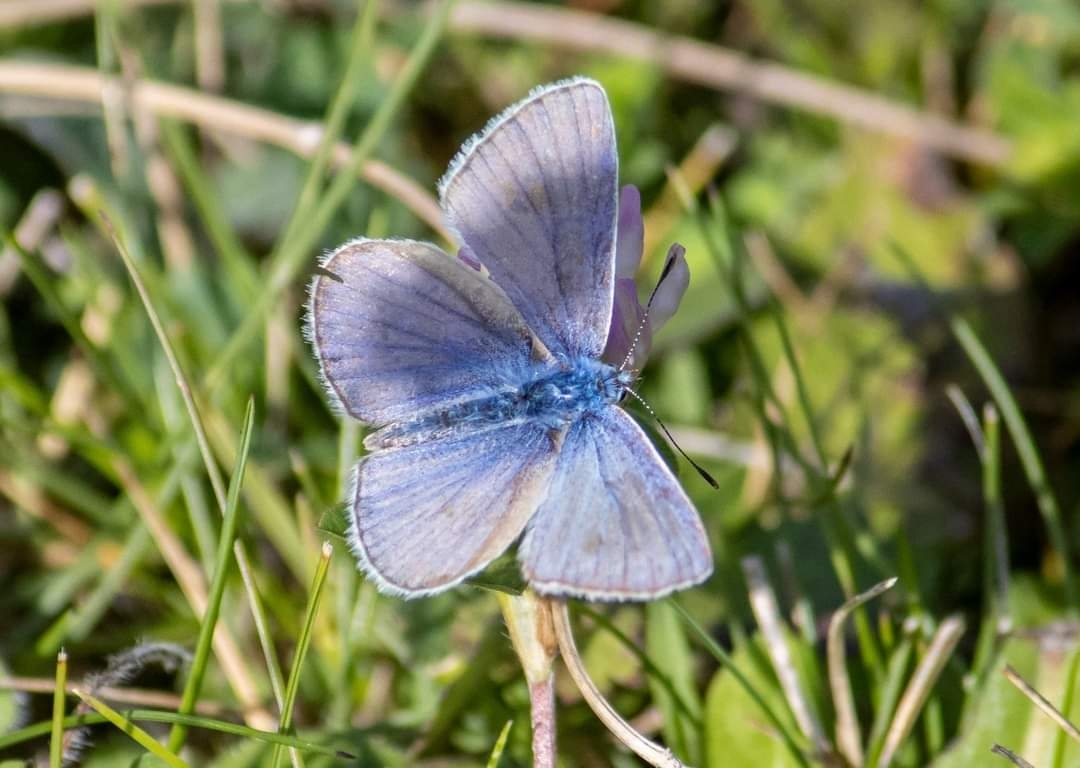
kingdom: Animalia
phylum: Arthropoda
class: Insecta
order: Lepidoptera
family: Lycaenidae
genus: Polyommatus
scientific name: Polyommatus icarus
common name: Common blue
